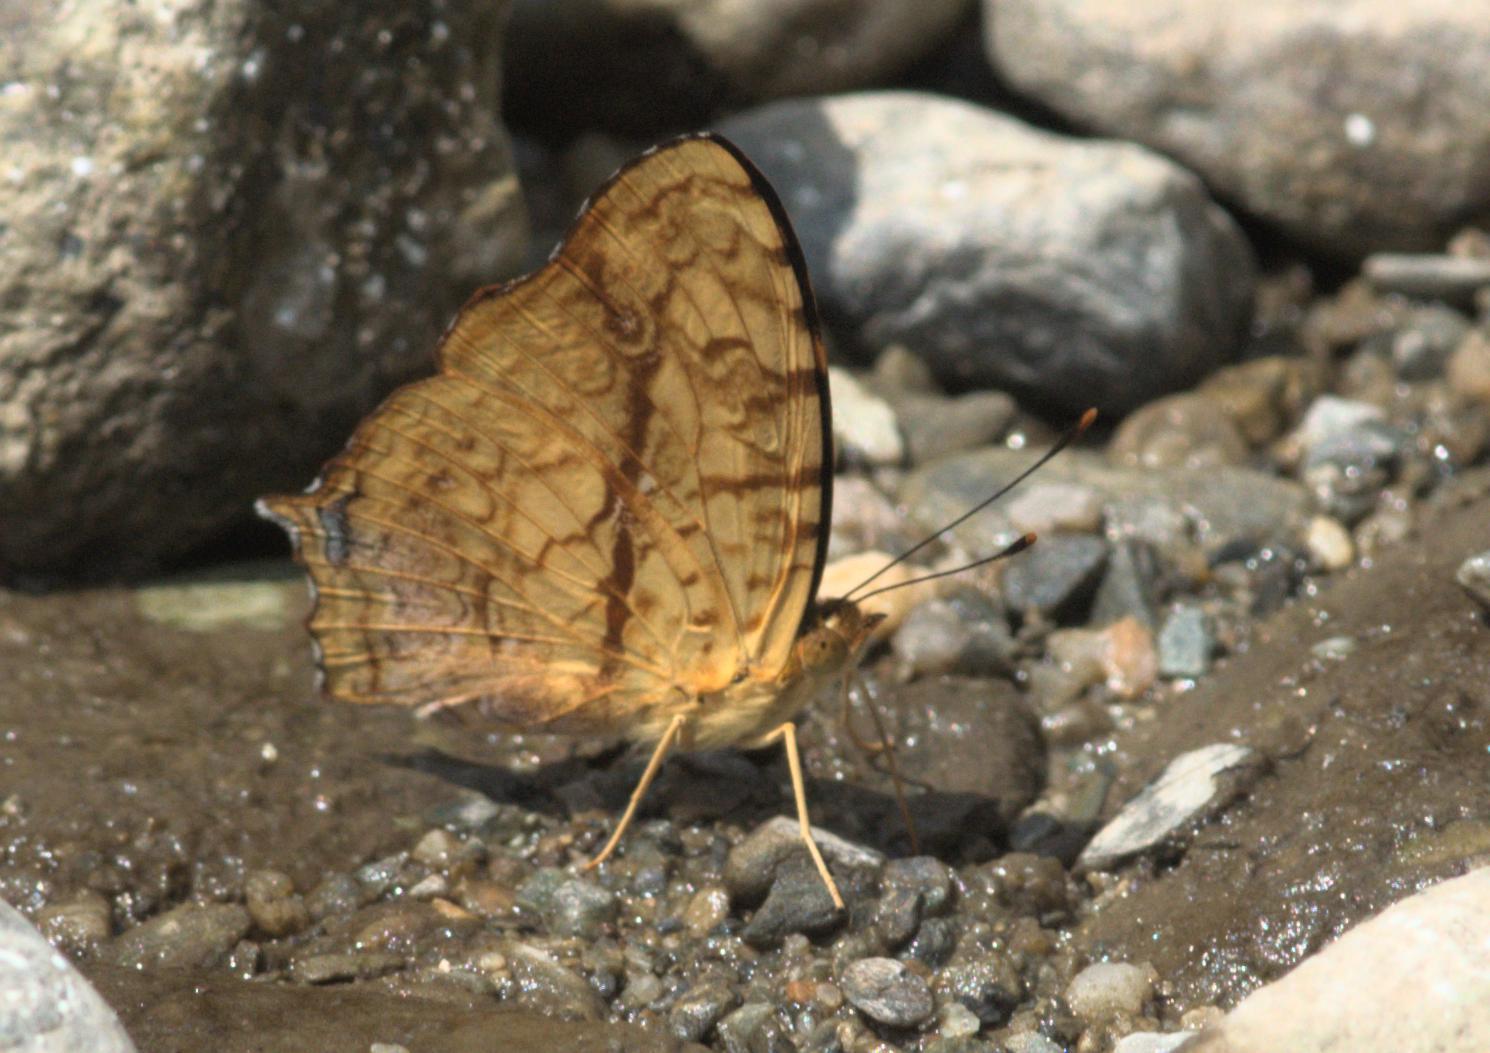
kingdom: Animalia
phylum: Arthropoda
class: Insecta
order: Lepidoptera
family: Nymphalidae
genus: Symbrenthia
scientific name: Symbrenthia hypselis
